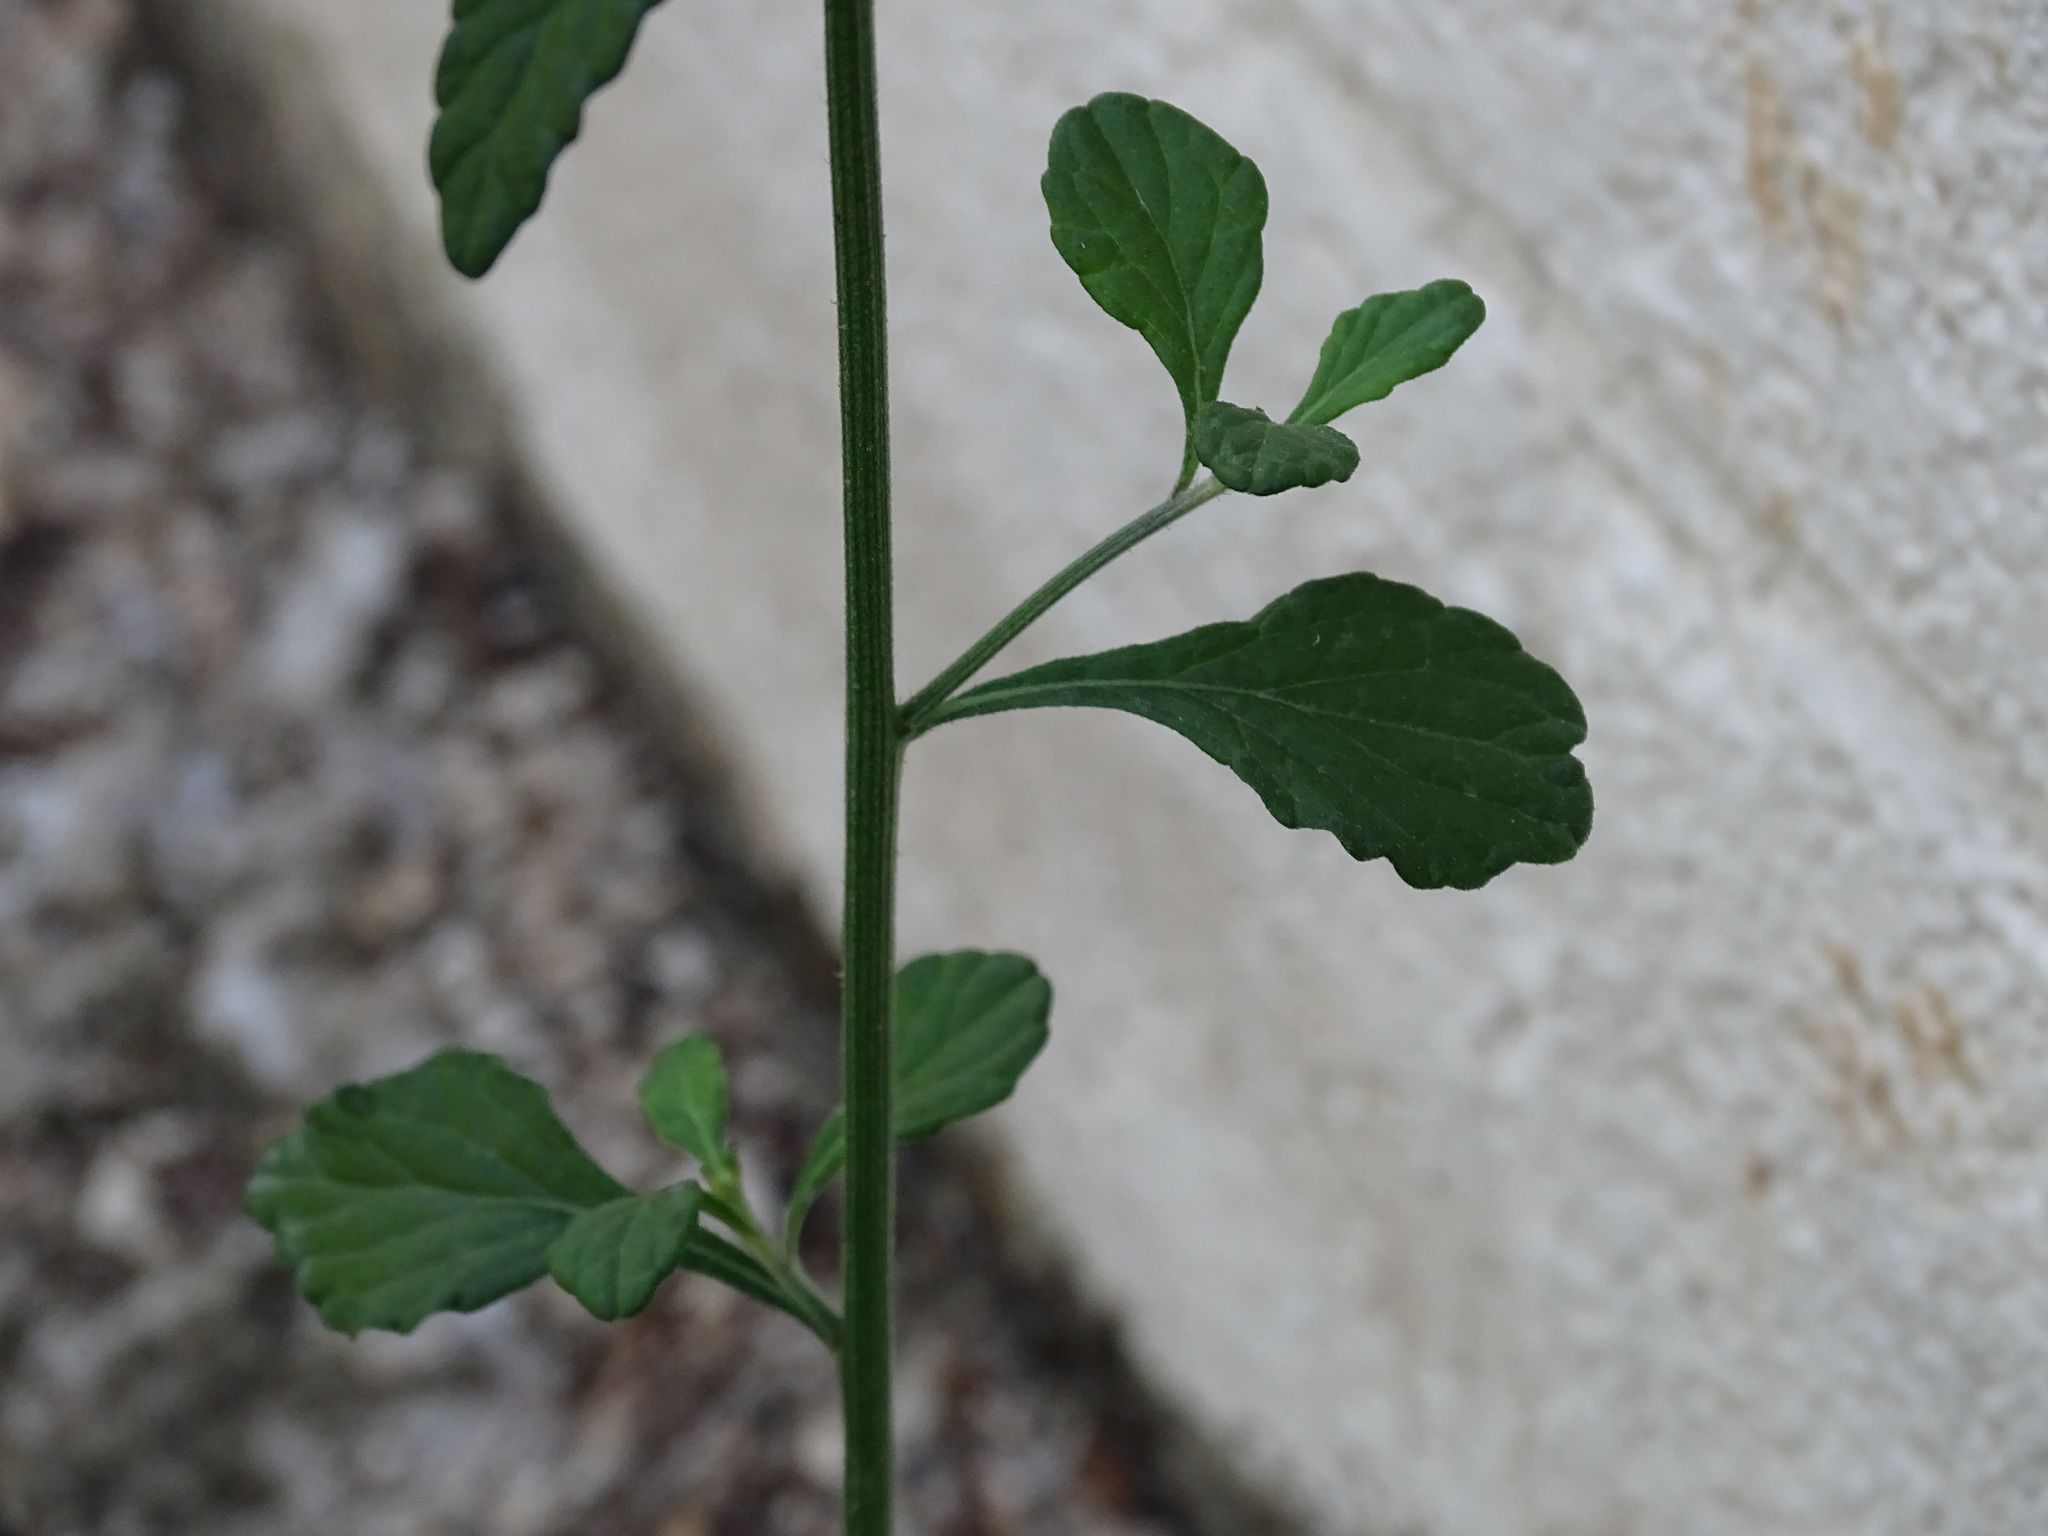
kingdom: Plantae
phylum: Tracheophyta
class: Magnoliopsida
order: Asterales
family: Asteraceae
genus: Cyanthillium
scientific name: Cyanthillium cinereum
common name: Little ironweed
